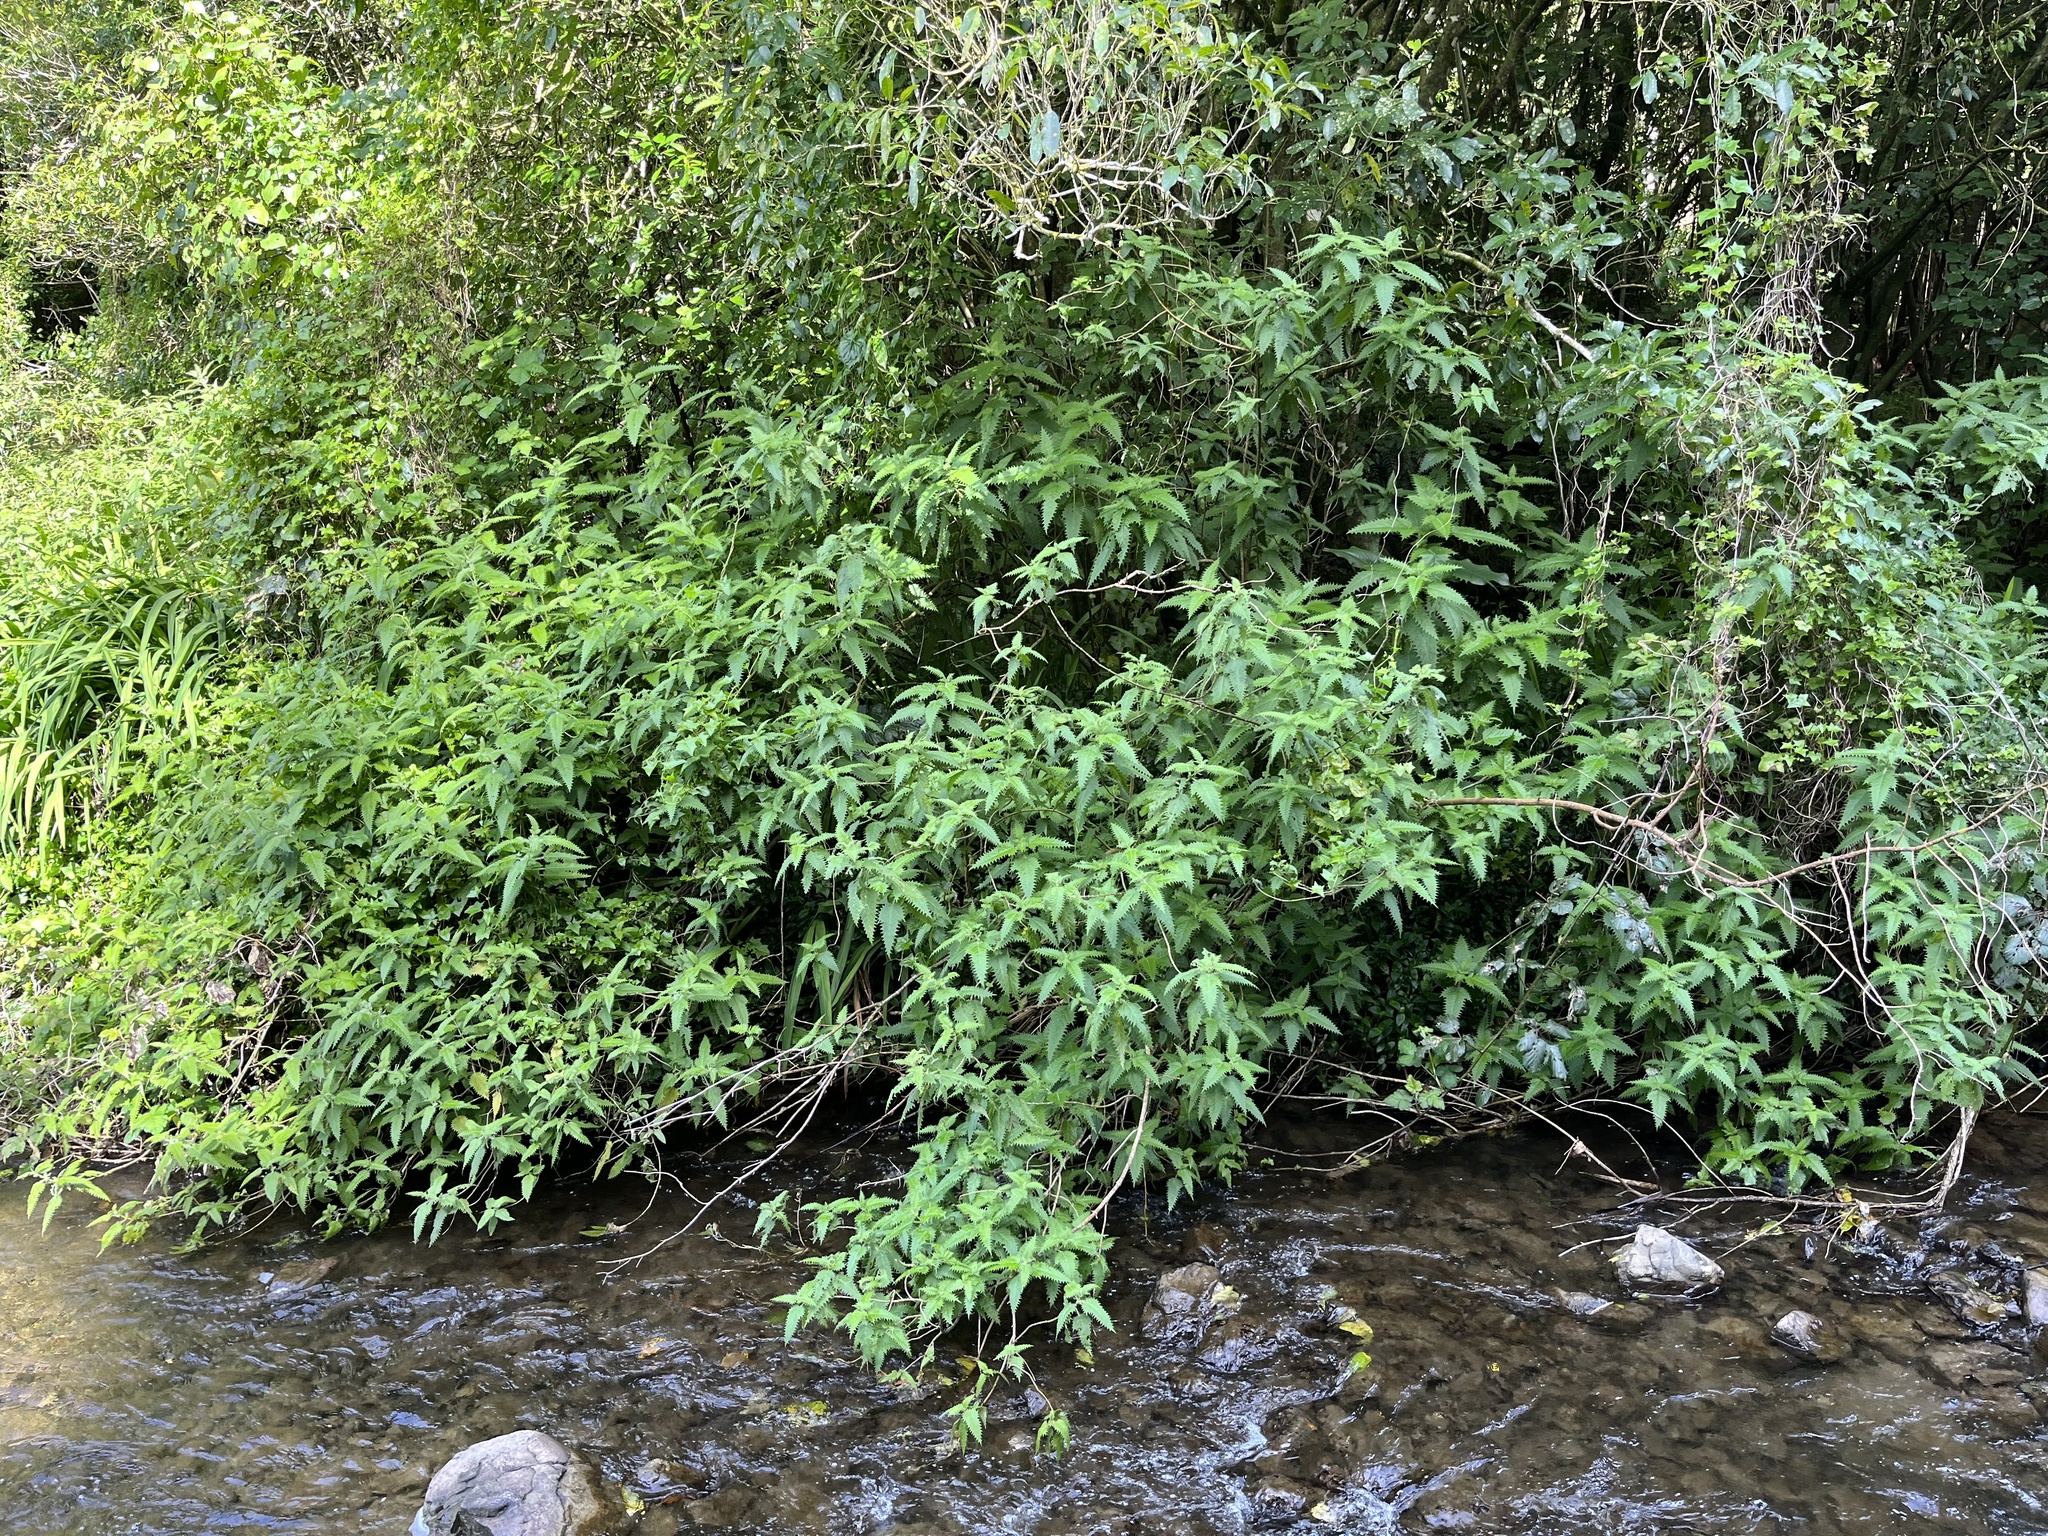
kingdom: Plantae
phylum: Tracheophyta
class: Magnoliopsida
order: Rosales
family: Urticaceae
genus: Urtica
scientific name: Urtica ferox
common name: Tree nettle
